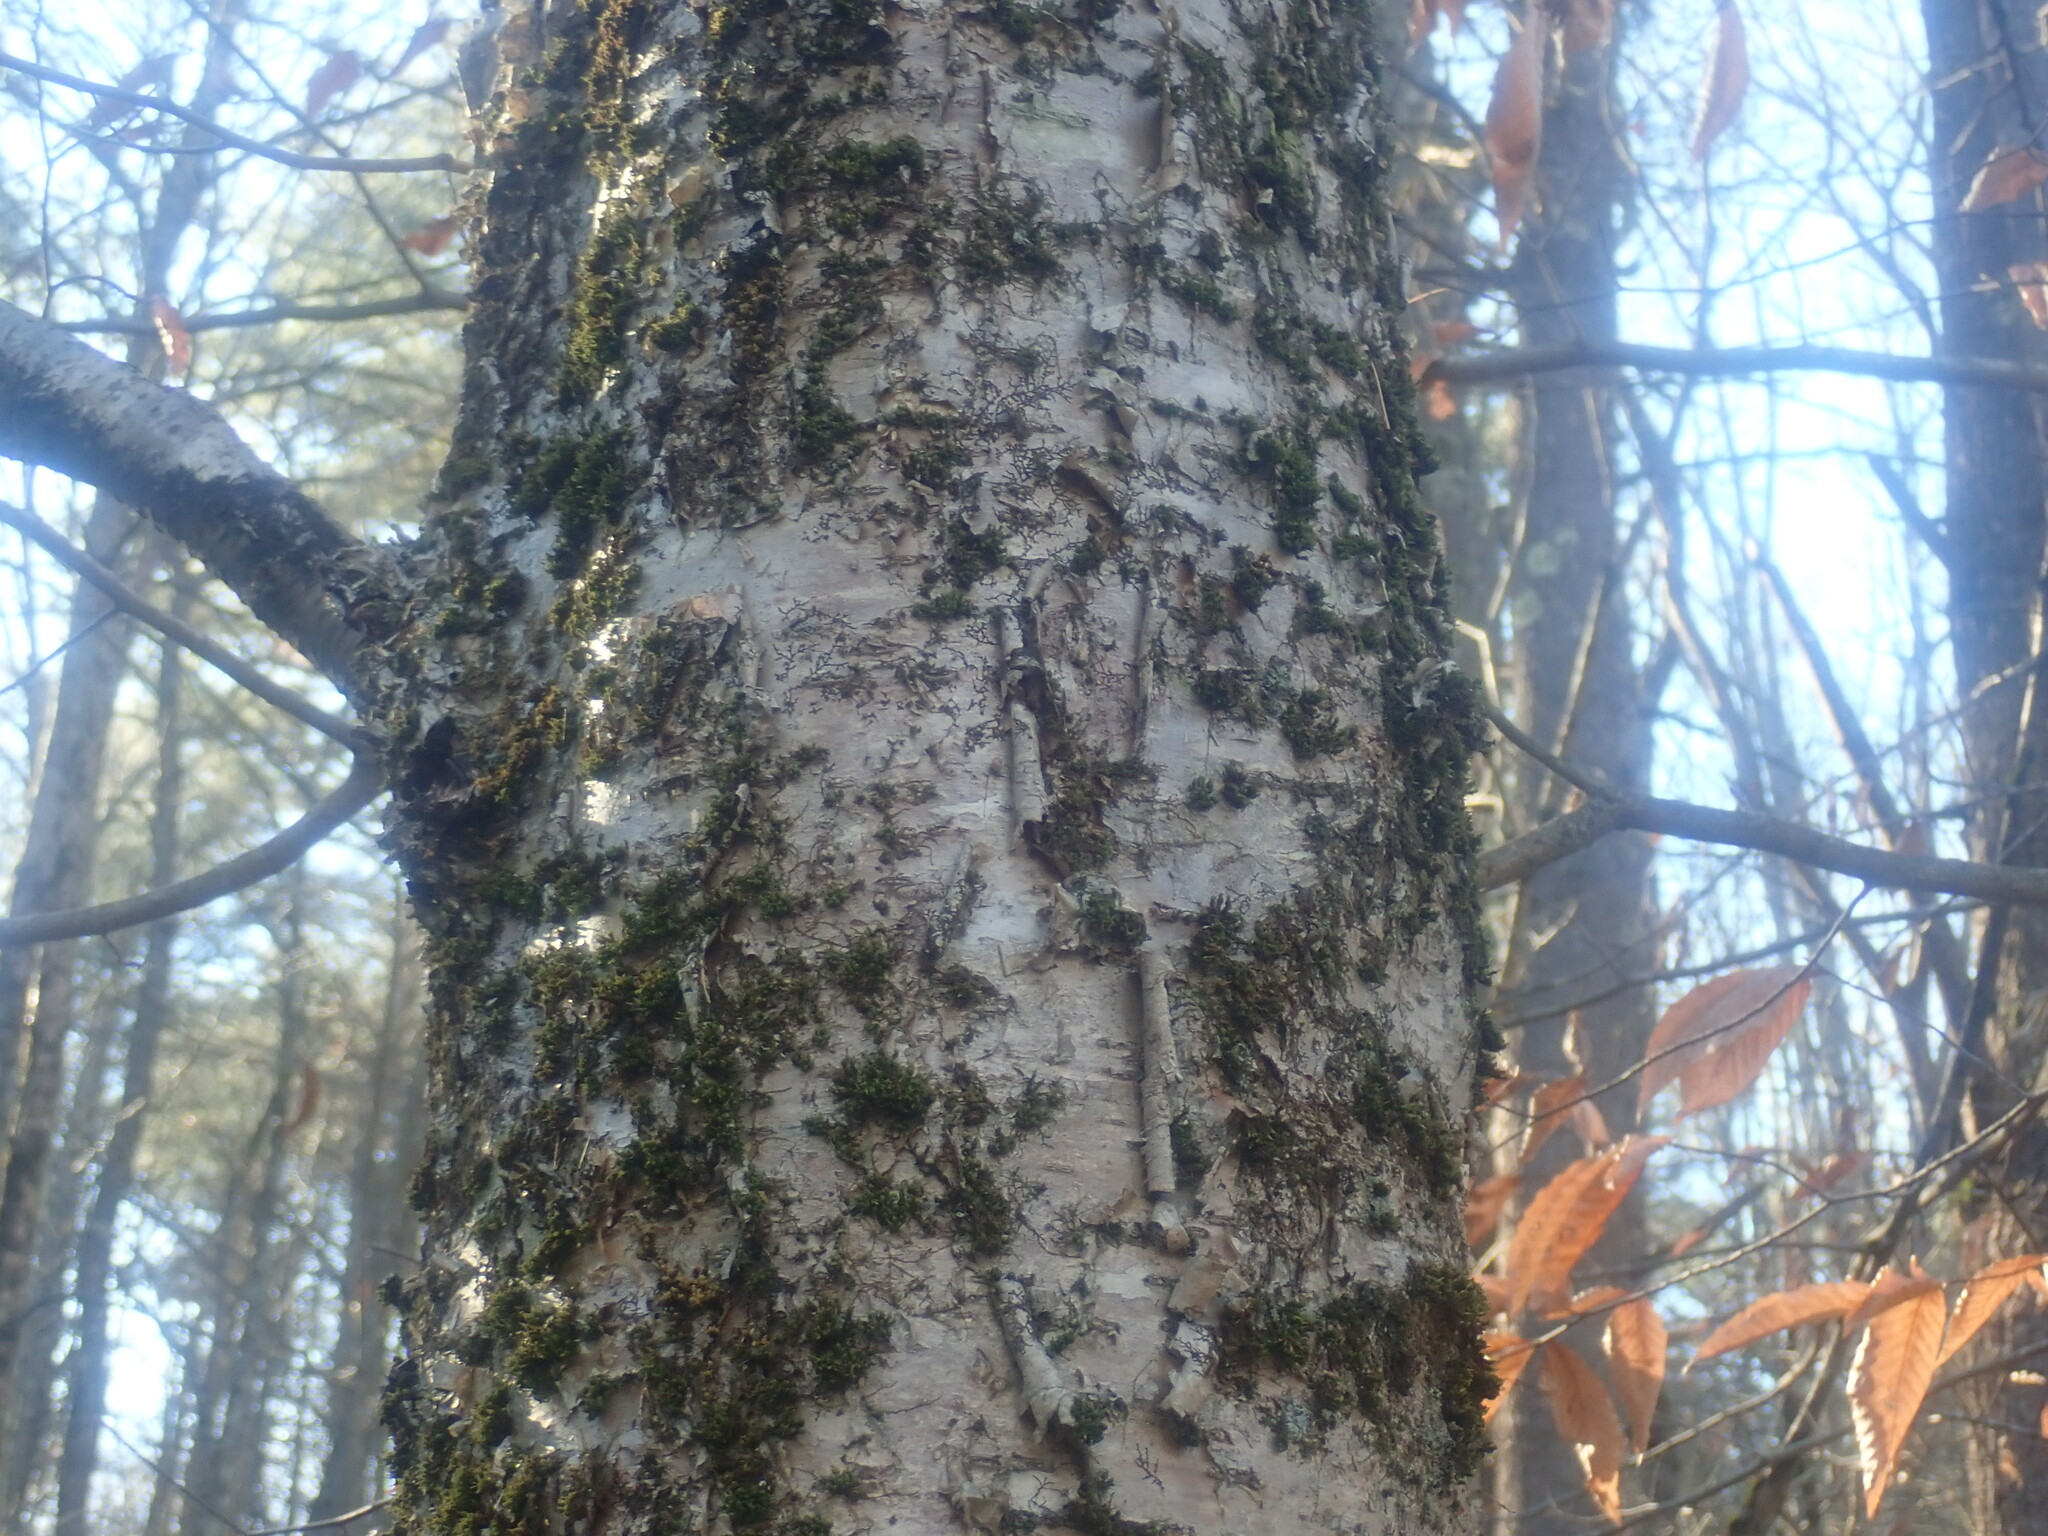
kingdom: Plantae
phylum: Tracheophyta
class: Magnoliopsida
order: Fagales
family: Betulaceae
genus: Betula
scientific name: Betula alleghaniensis
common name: Yellow birch
